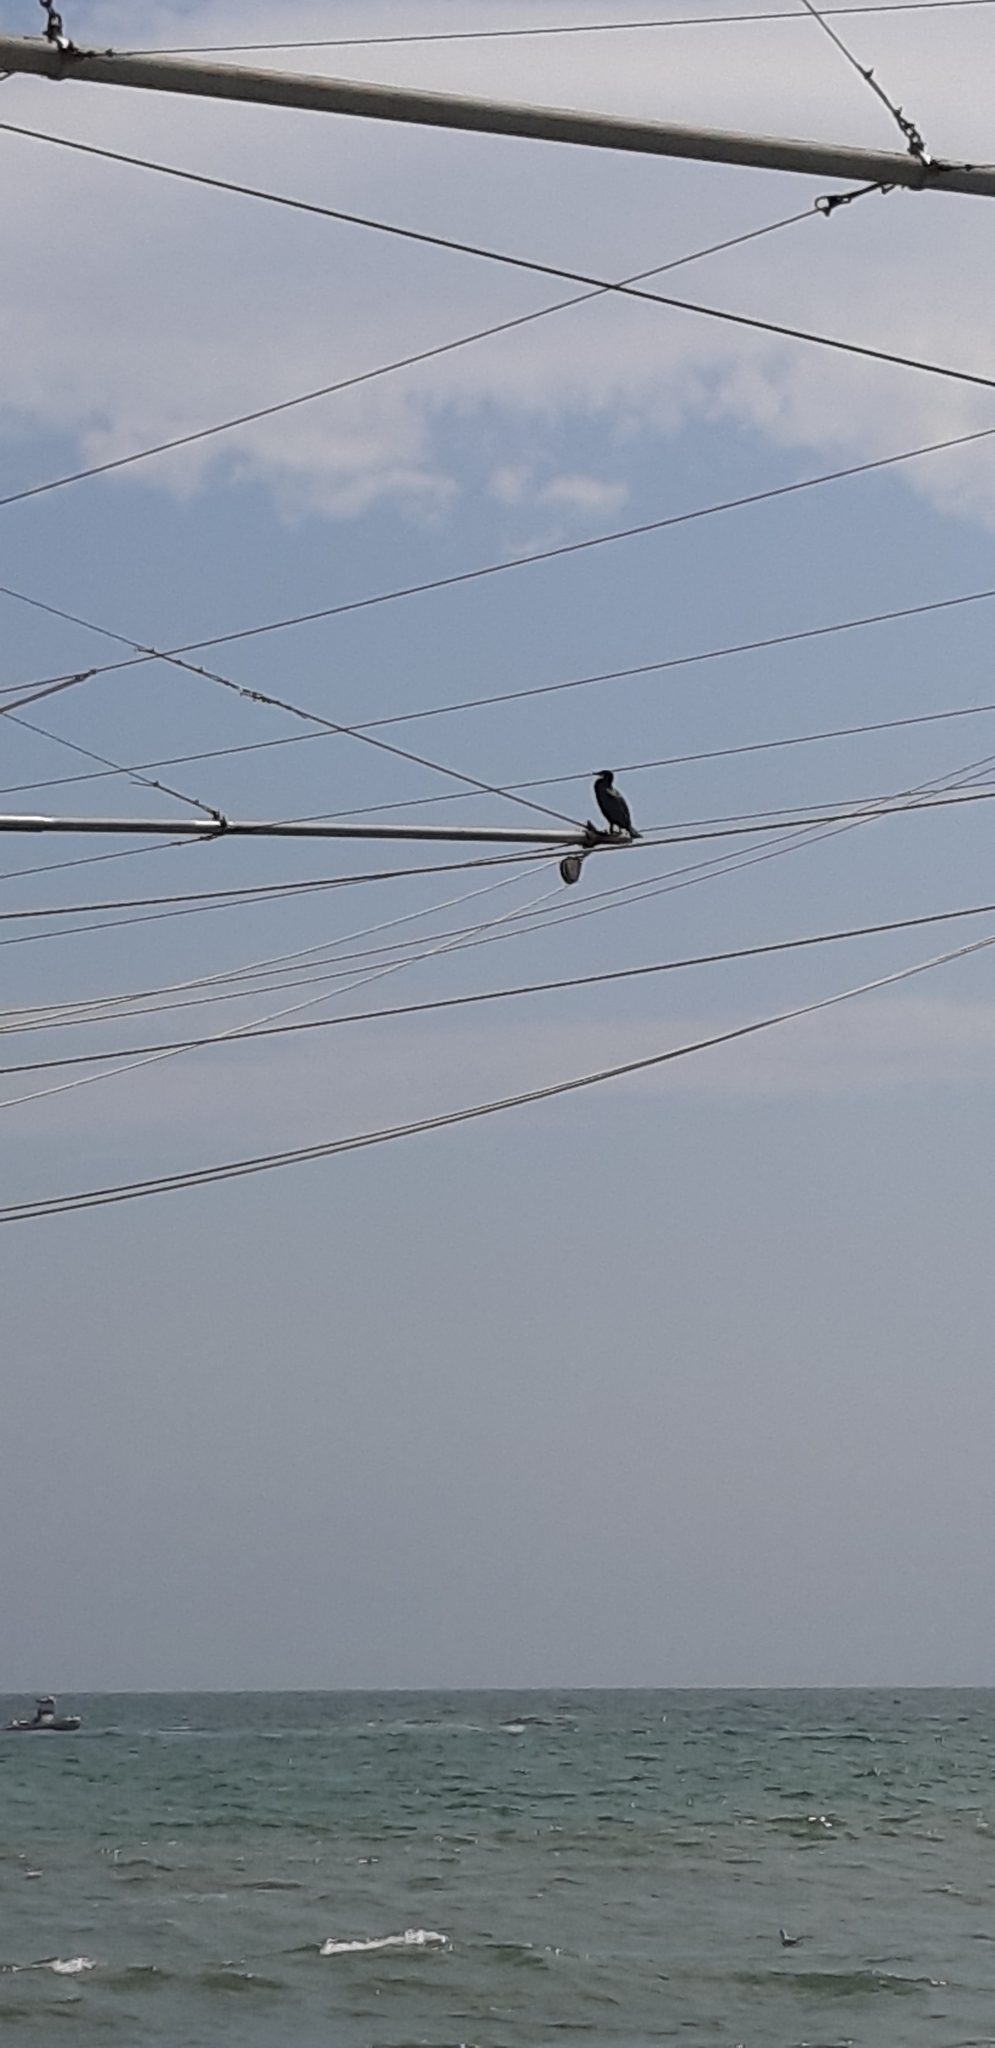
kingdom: Animalia
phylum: Chordata
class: Aves
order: Suliformes
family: Phalacrocoracidae
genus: Phalacrocorax
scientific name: Phalacrocorax carbo
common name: Great cormorant
